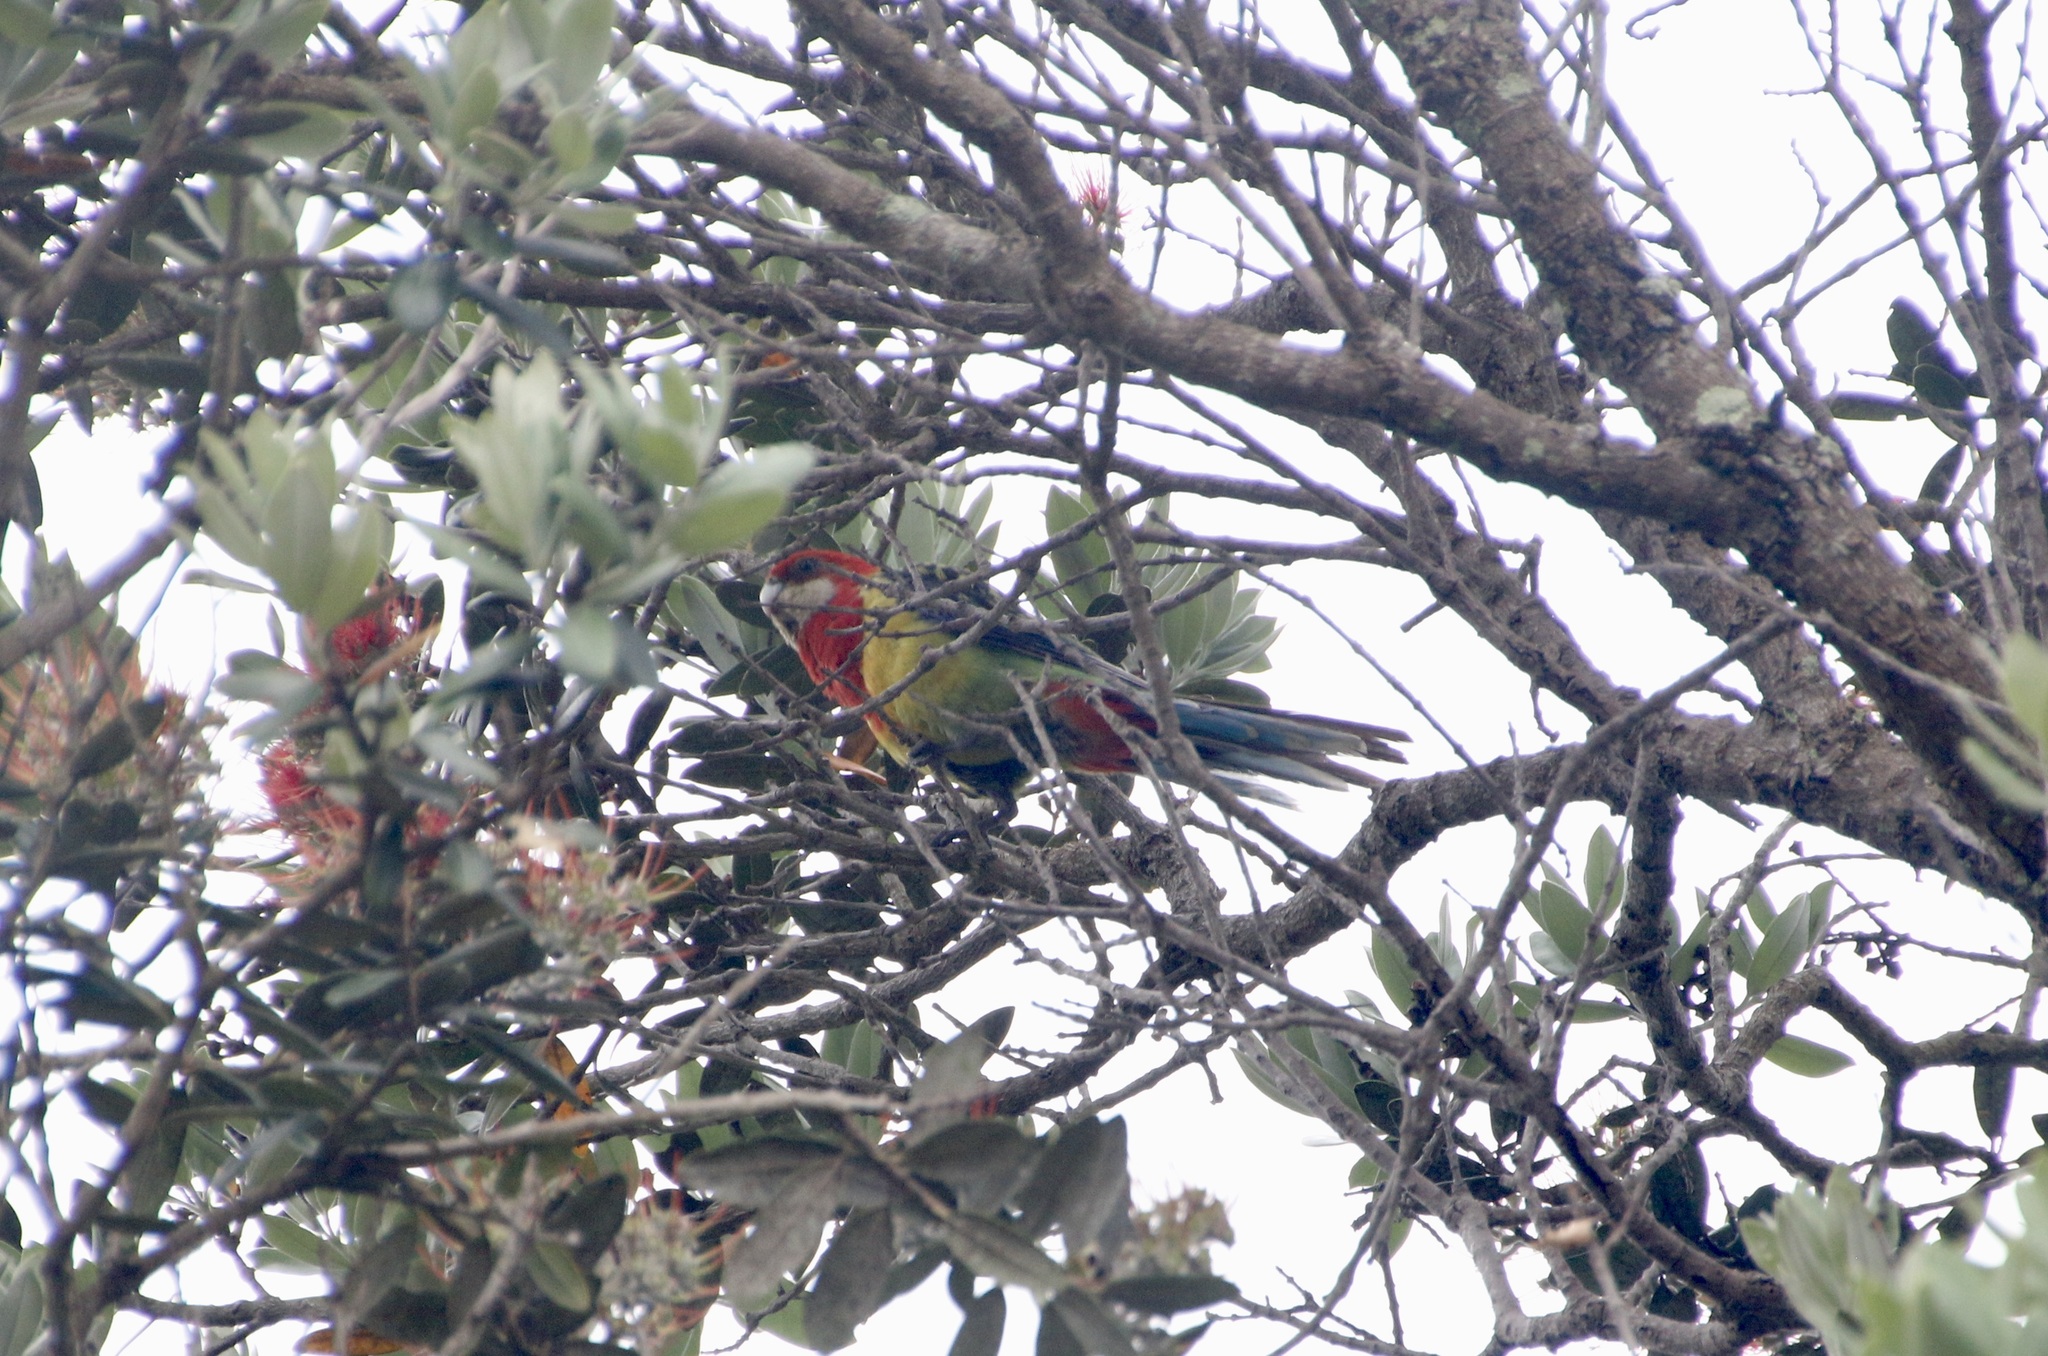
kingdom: Animalia
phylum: Chordata
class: Aves
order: Psittaciformes
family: Psittacidae
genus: Platycercus
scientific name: Platycercus eximius
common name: Eastern rosella
